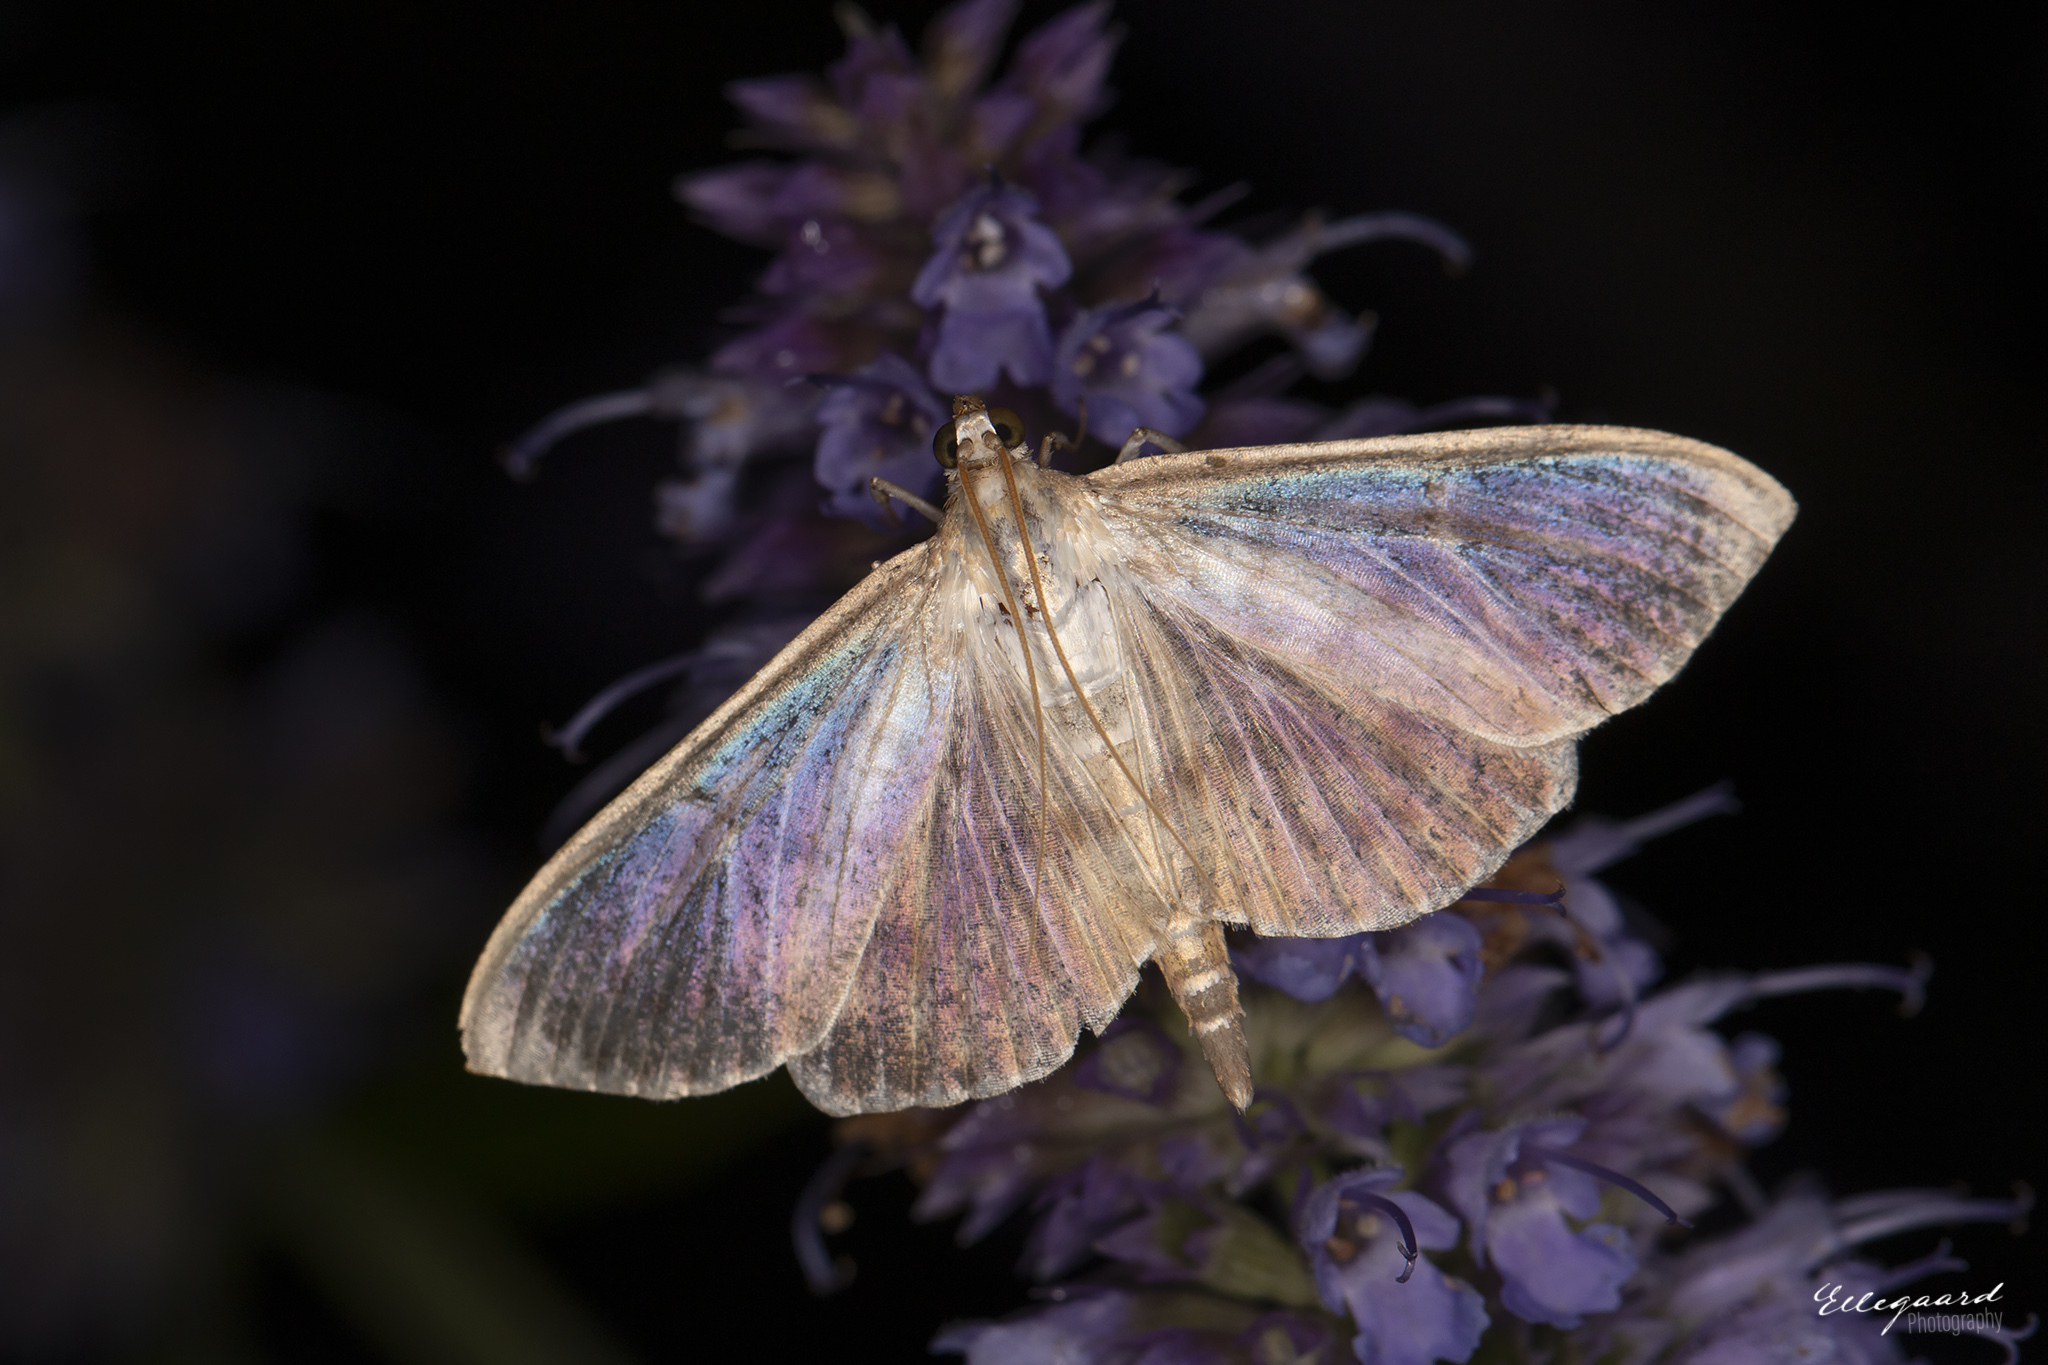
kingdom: Animalia
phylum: Arthropoda
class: Insecta
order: Lepidoptera
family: Crambidae
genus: Patania
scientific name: Patania ruralis
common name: Mother of pearl
